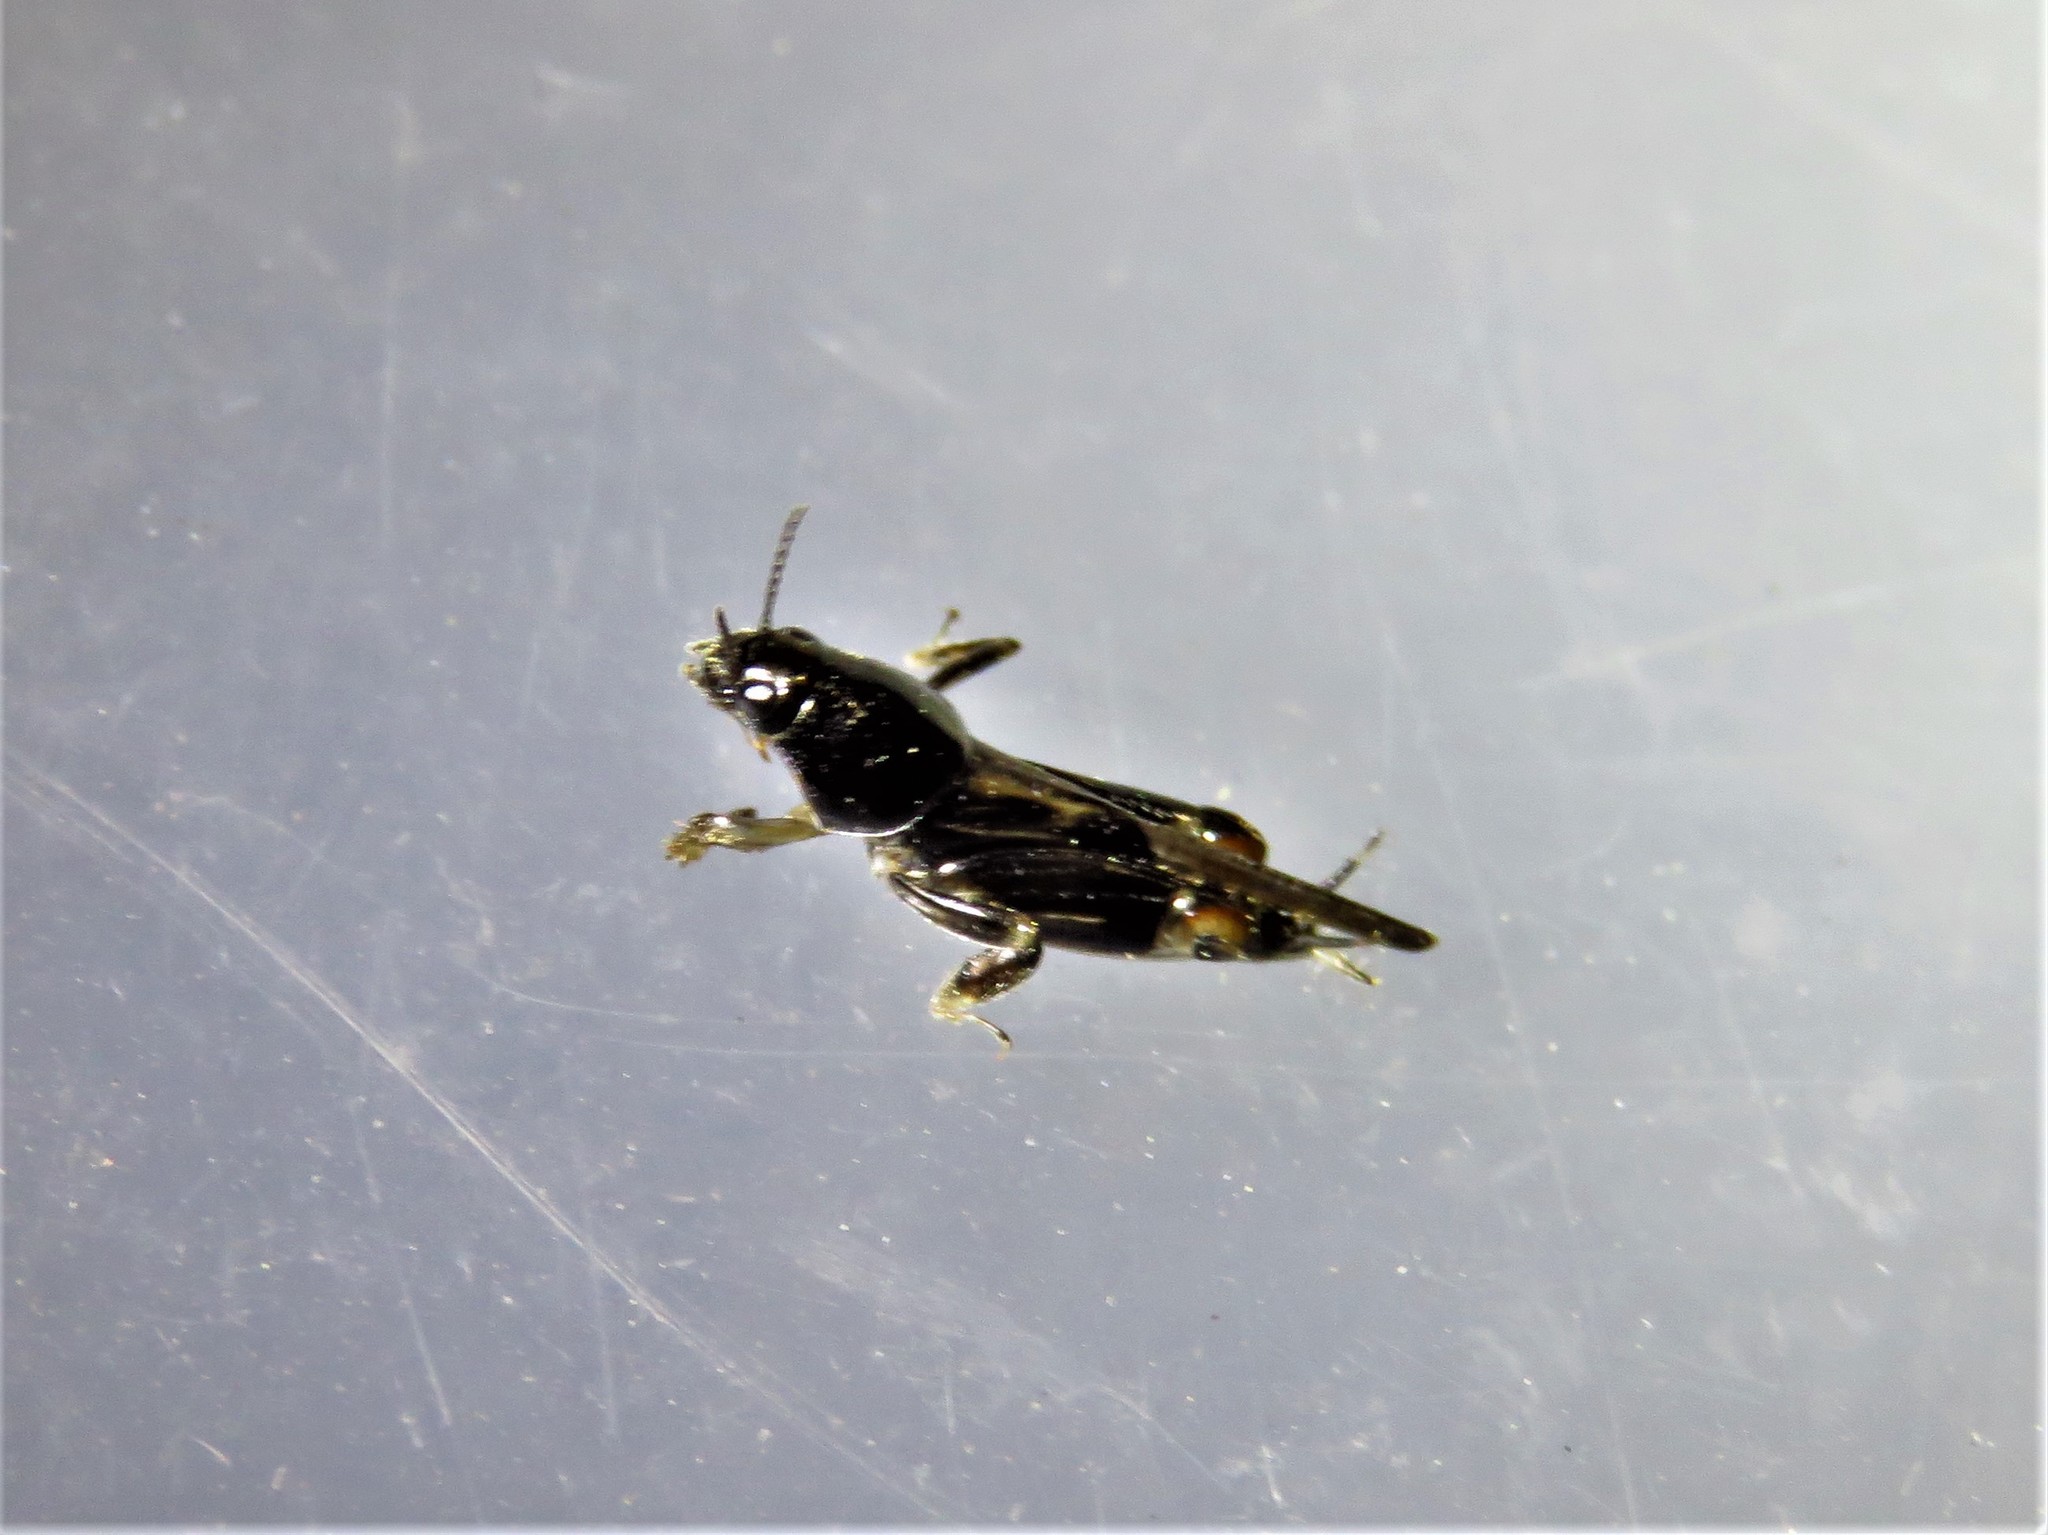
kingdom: Animalia
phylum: Arthropoda
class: Insecta
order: Orthoptera
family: Tridactylidae
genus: Neotridactylus
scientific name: Neotridactylus apicialis
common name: Larger pygmy locust
